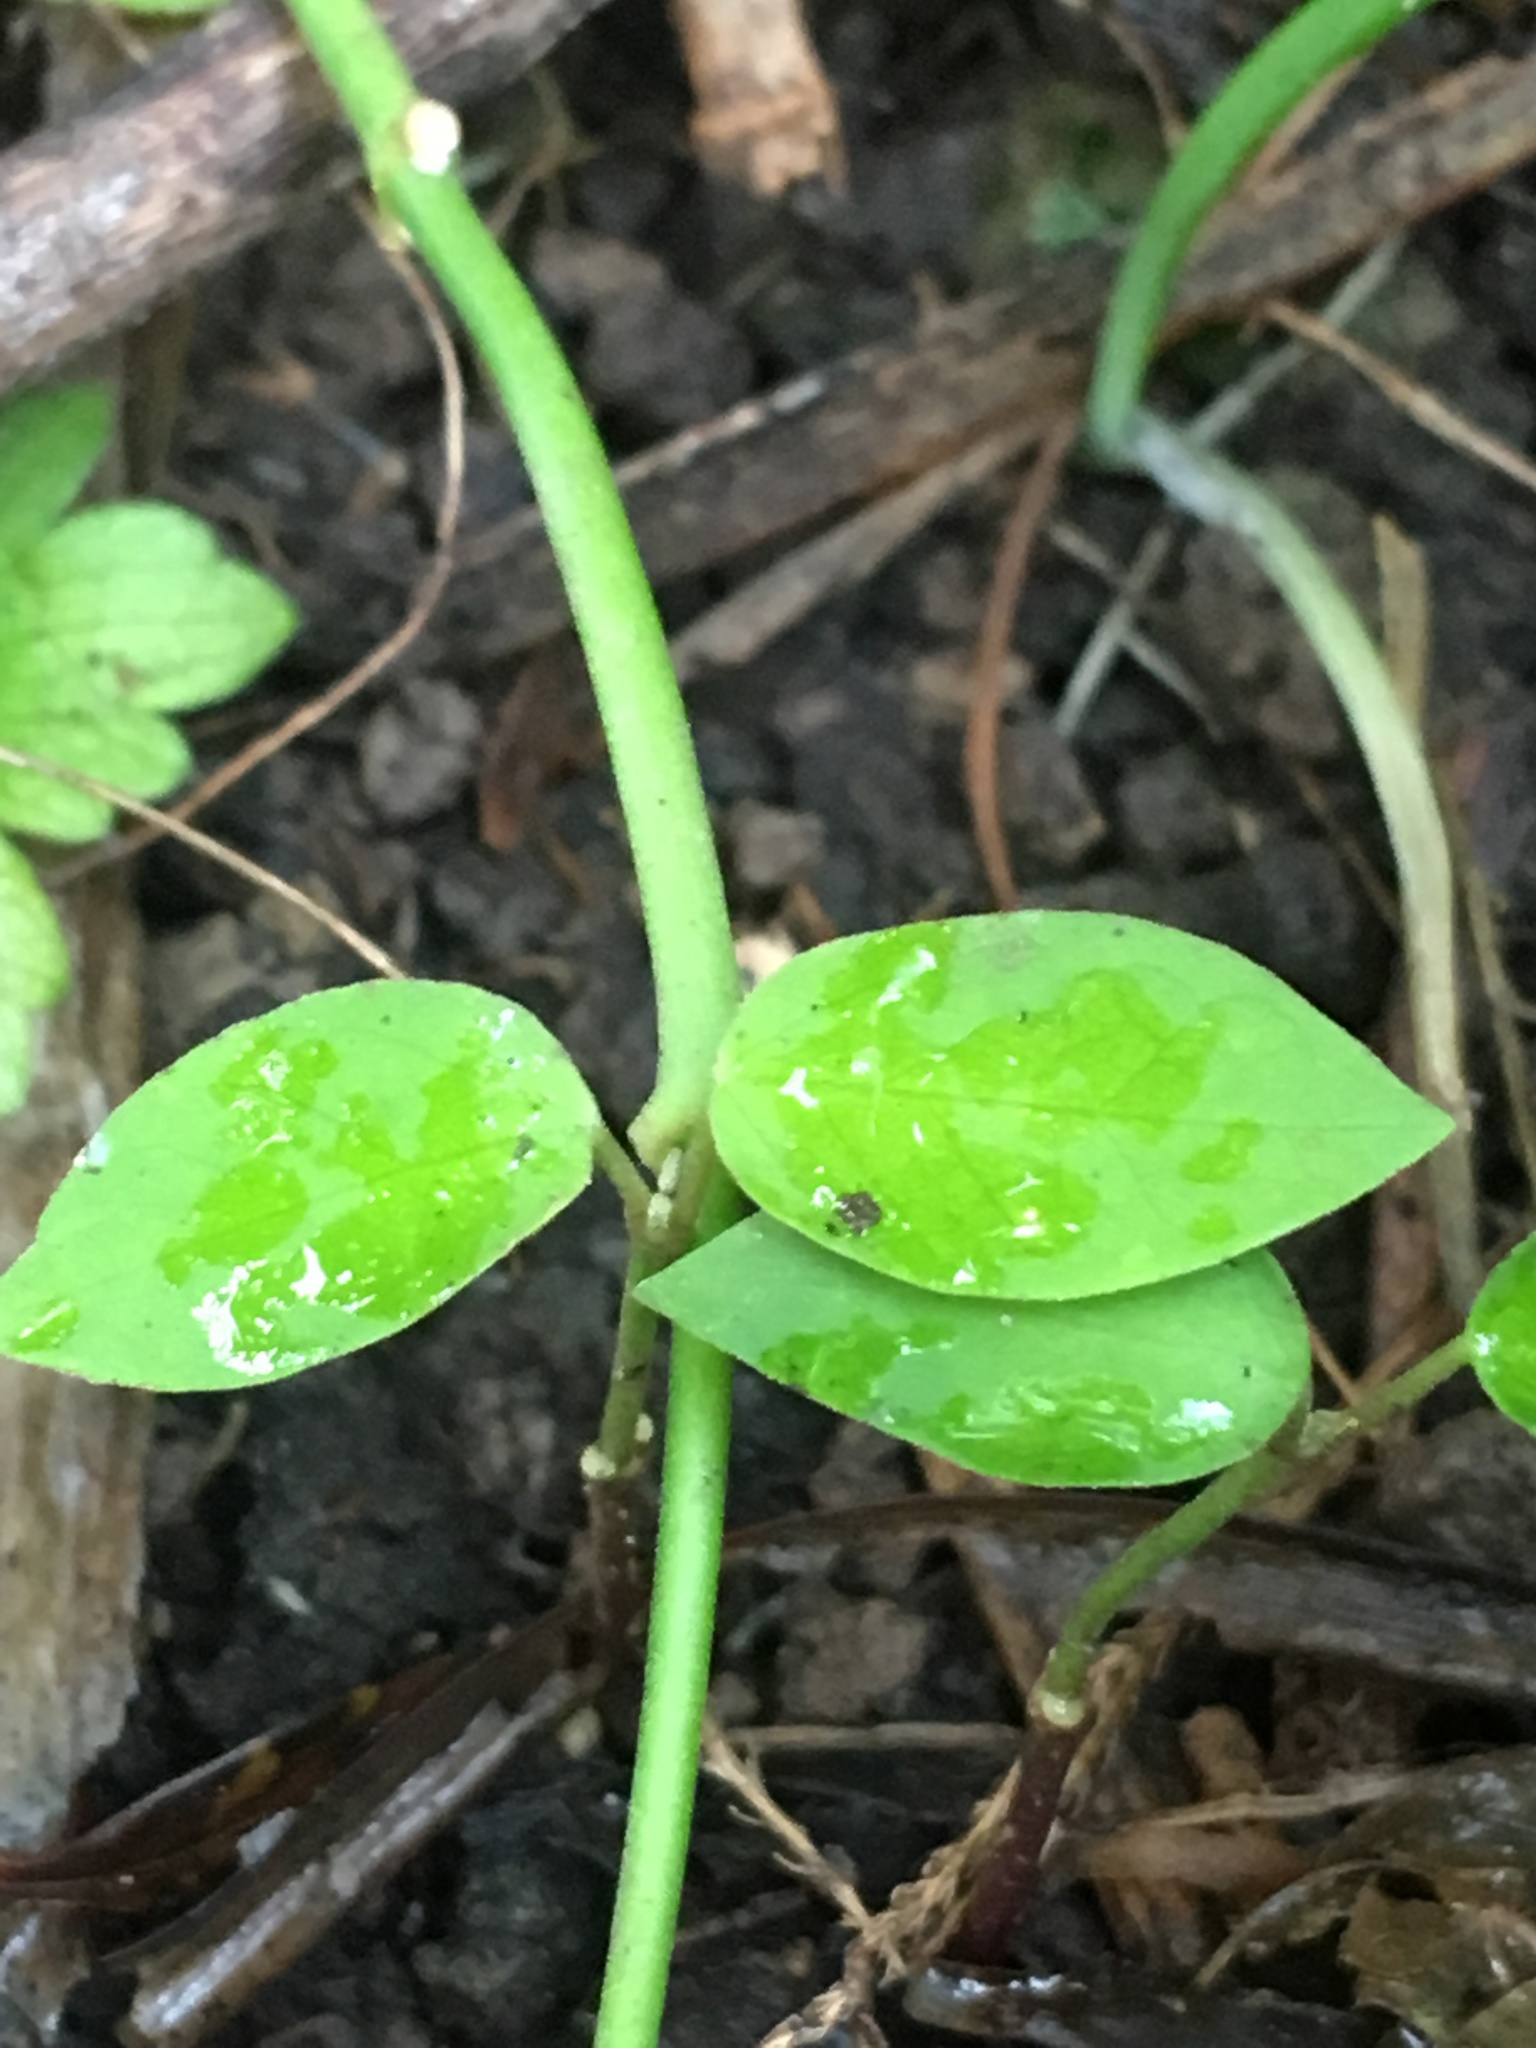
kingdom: Plantae
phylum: Tracheophyta
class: Magnoliopsida
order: Gentianales
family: Apocynaceae
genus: Araujia
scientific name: Araujia sericifera
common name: White bladderflower
